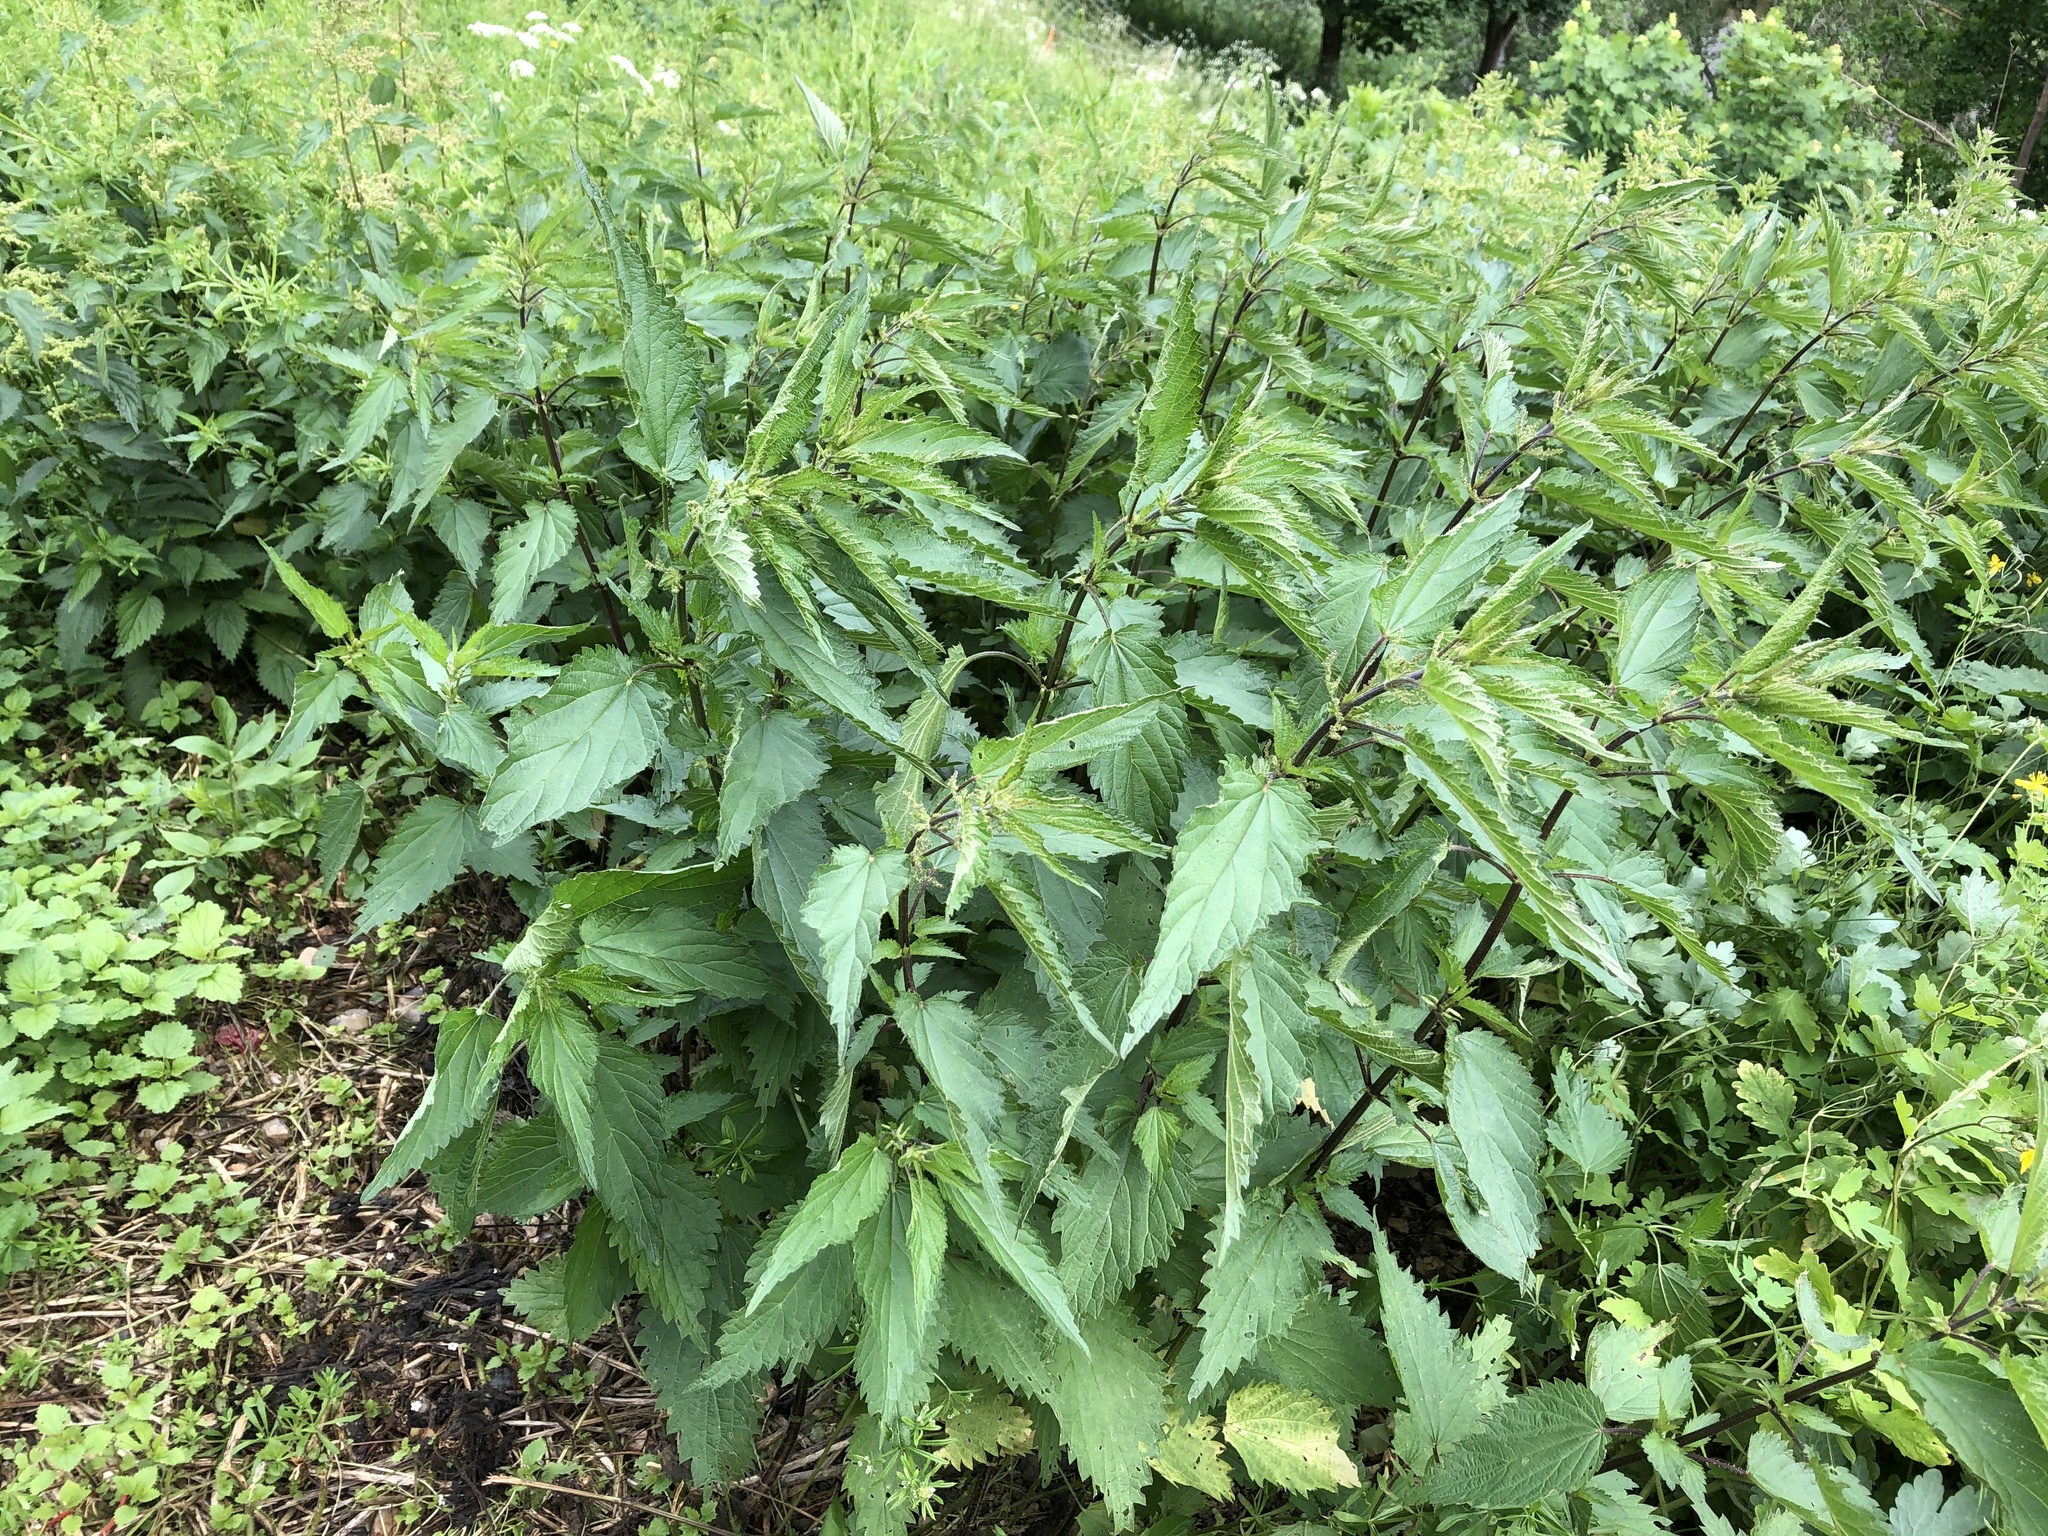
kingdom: Plantae
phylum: Tracheophyta
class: Magnoliopsida
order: Rosales
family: Urticaceae
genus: Urtica
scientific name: Urtica dioica
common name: Common nettle
